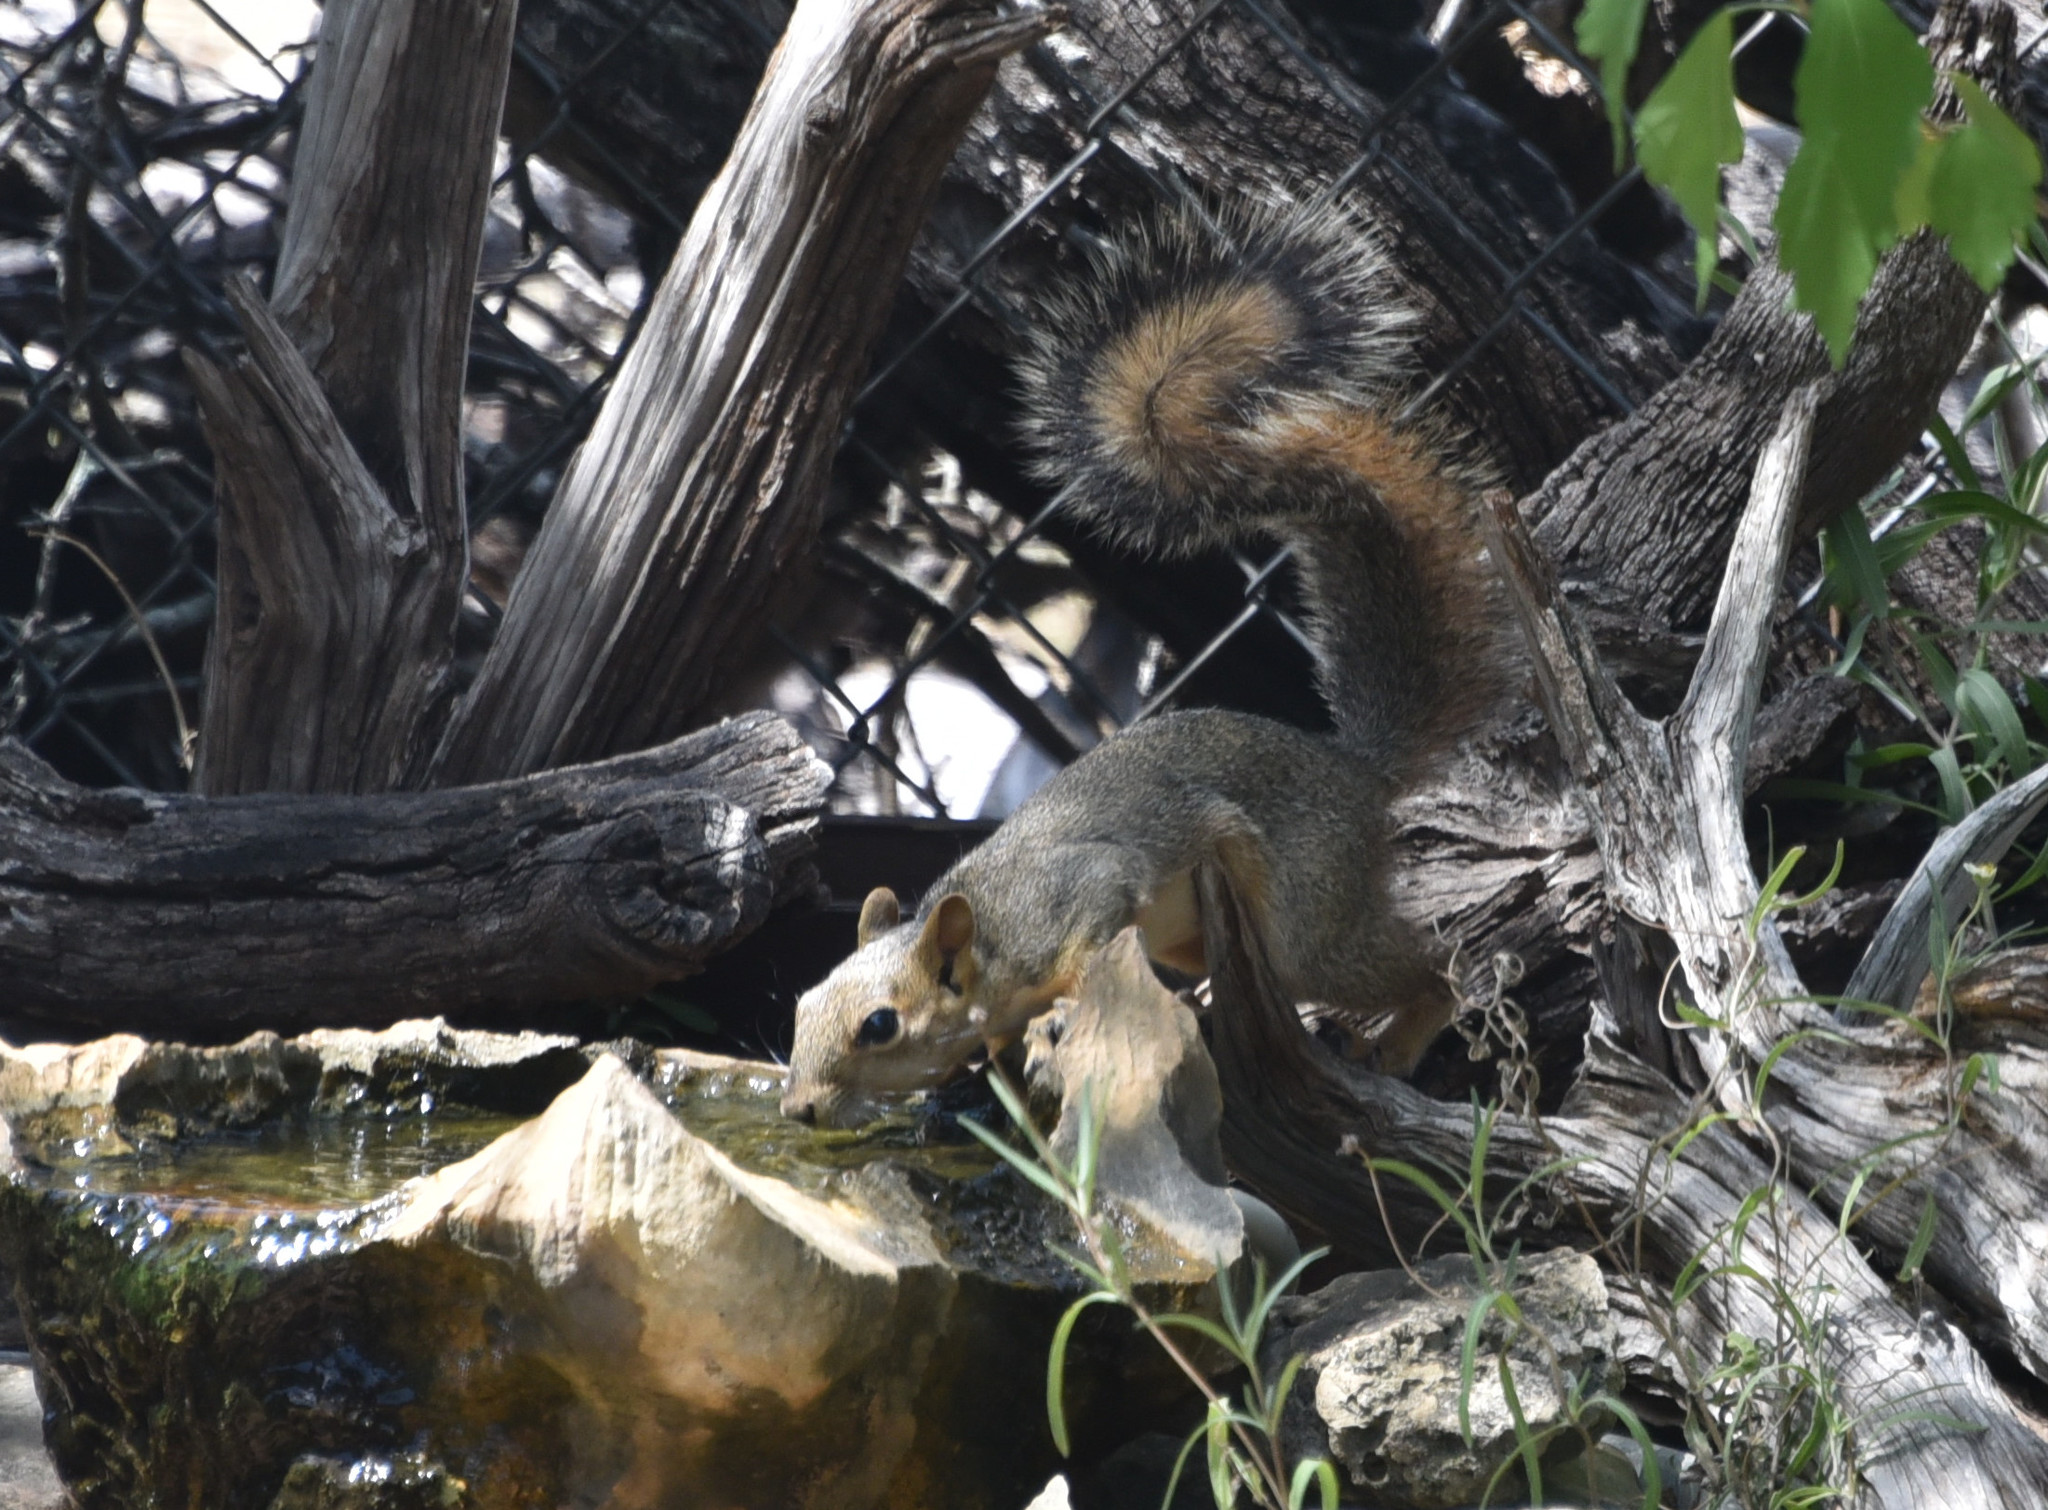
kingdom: Animalia
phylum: Chordata
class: Mammalia
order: Rodentia
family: Sciuridae
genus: Sciurus
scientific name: Sciurus niger
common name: Fox squirrel
